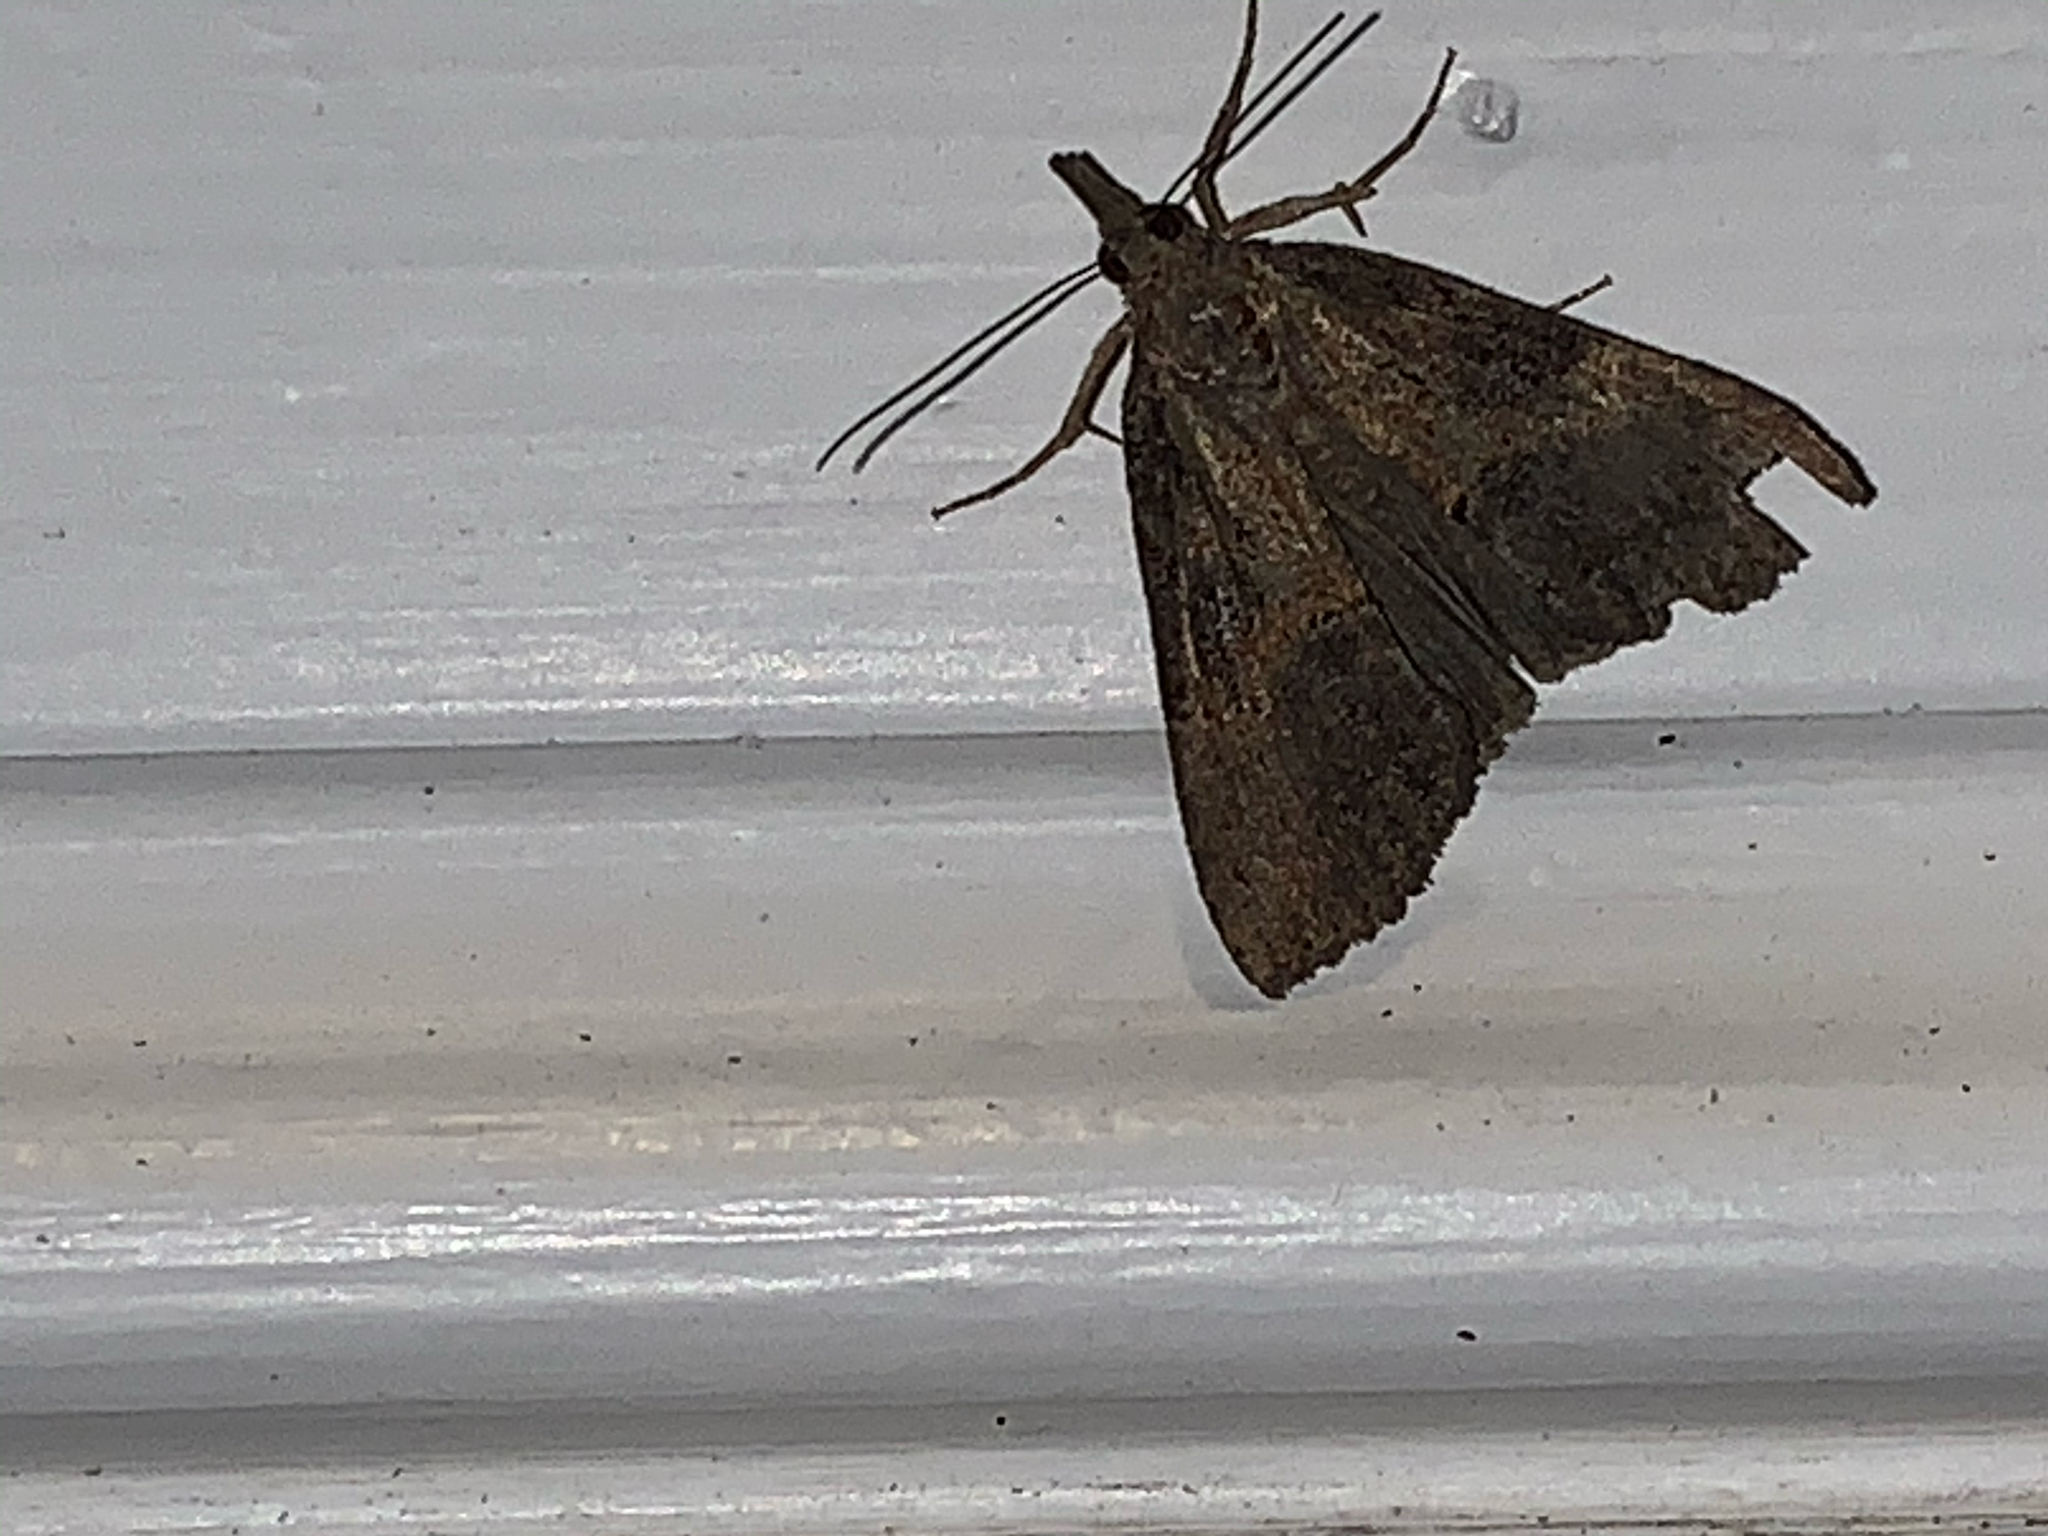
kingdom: Animalia
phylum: Arthropoda
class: Insecta
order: Lepidoptera
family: Erebidae
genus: Hypena
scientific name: Hypena scabra
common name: Green cloverworm
